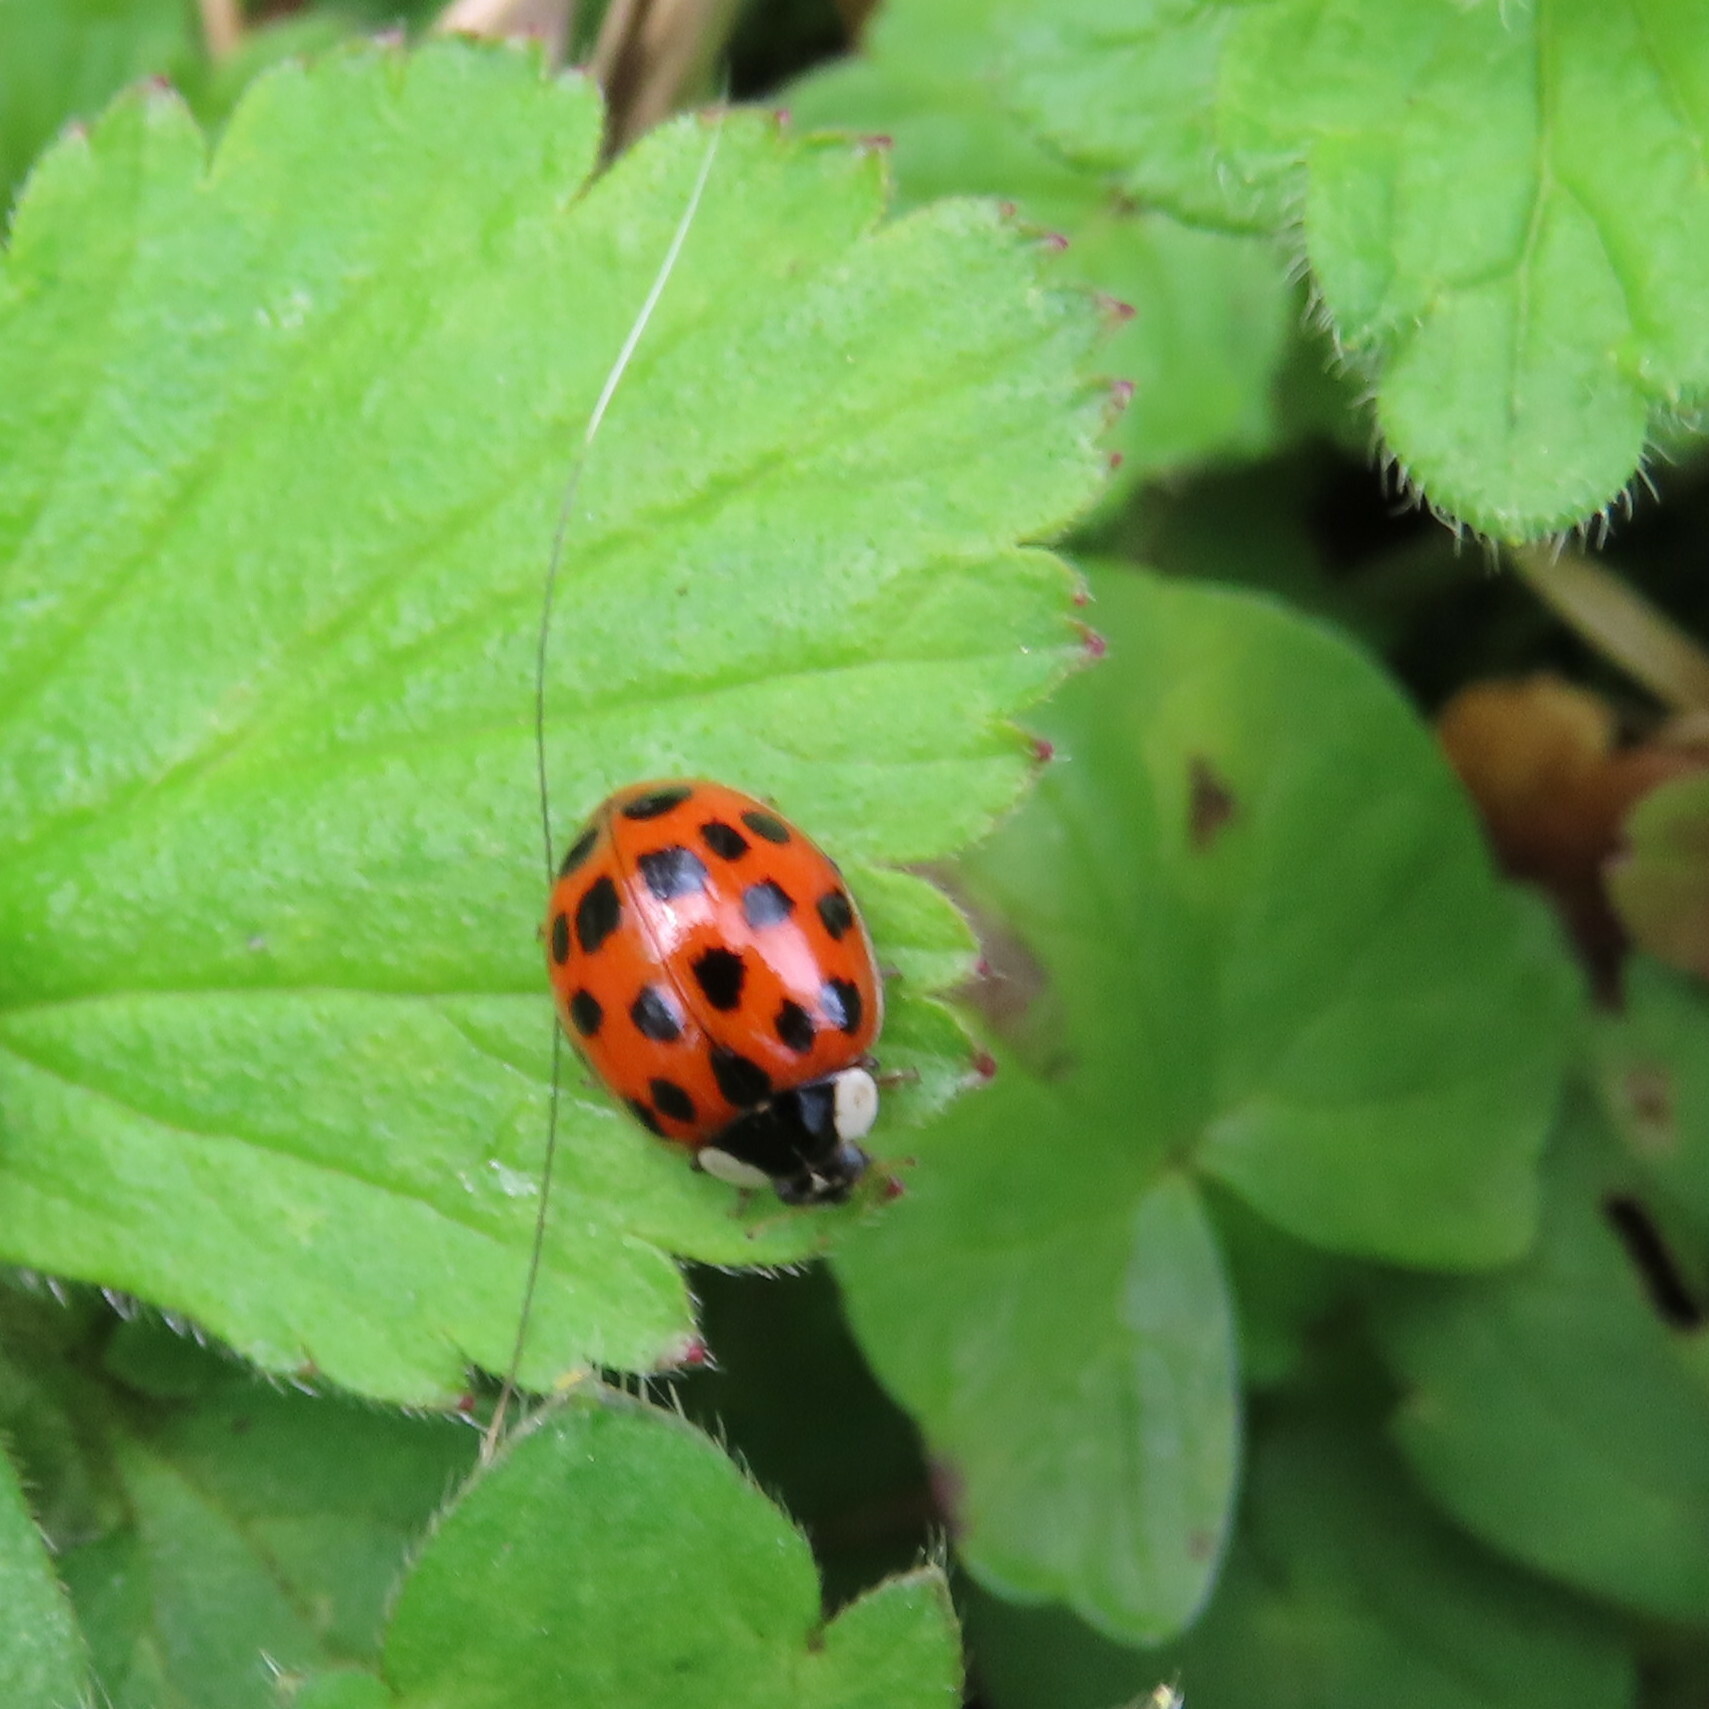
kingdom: Animalia
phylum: Arthropoda
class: Insecta
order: Coleoptera
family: Coccinellidae
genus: Harmonia
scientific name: Harmonia axyridis
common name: Harlequin ladybird
